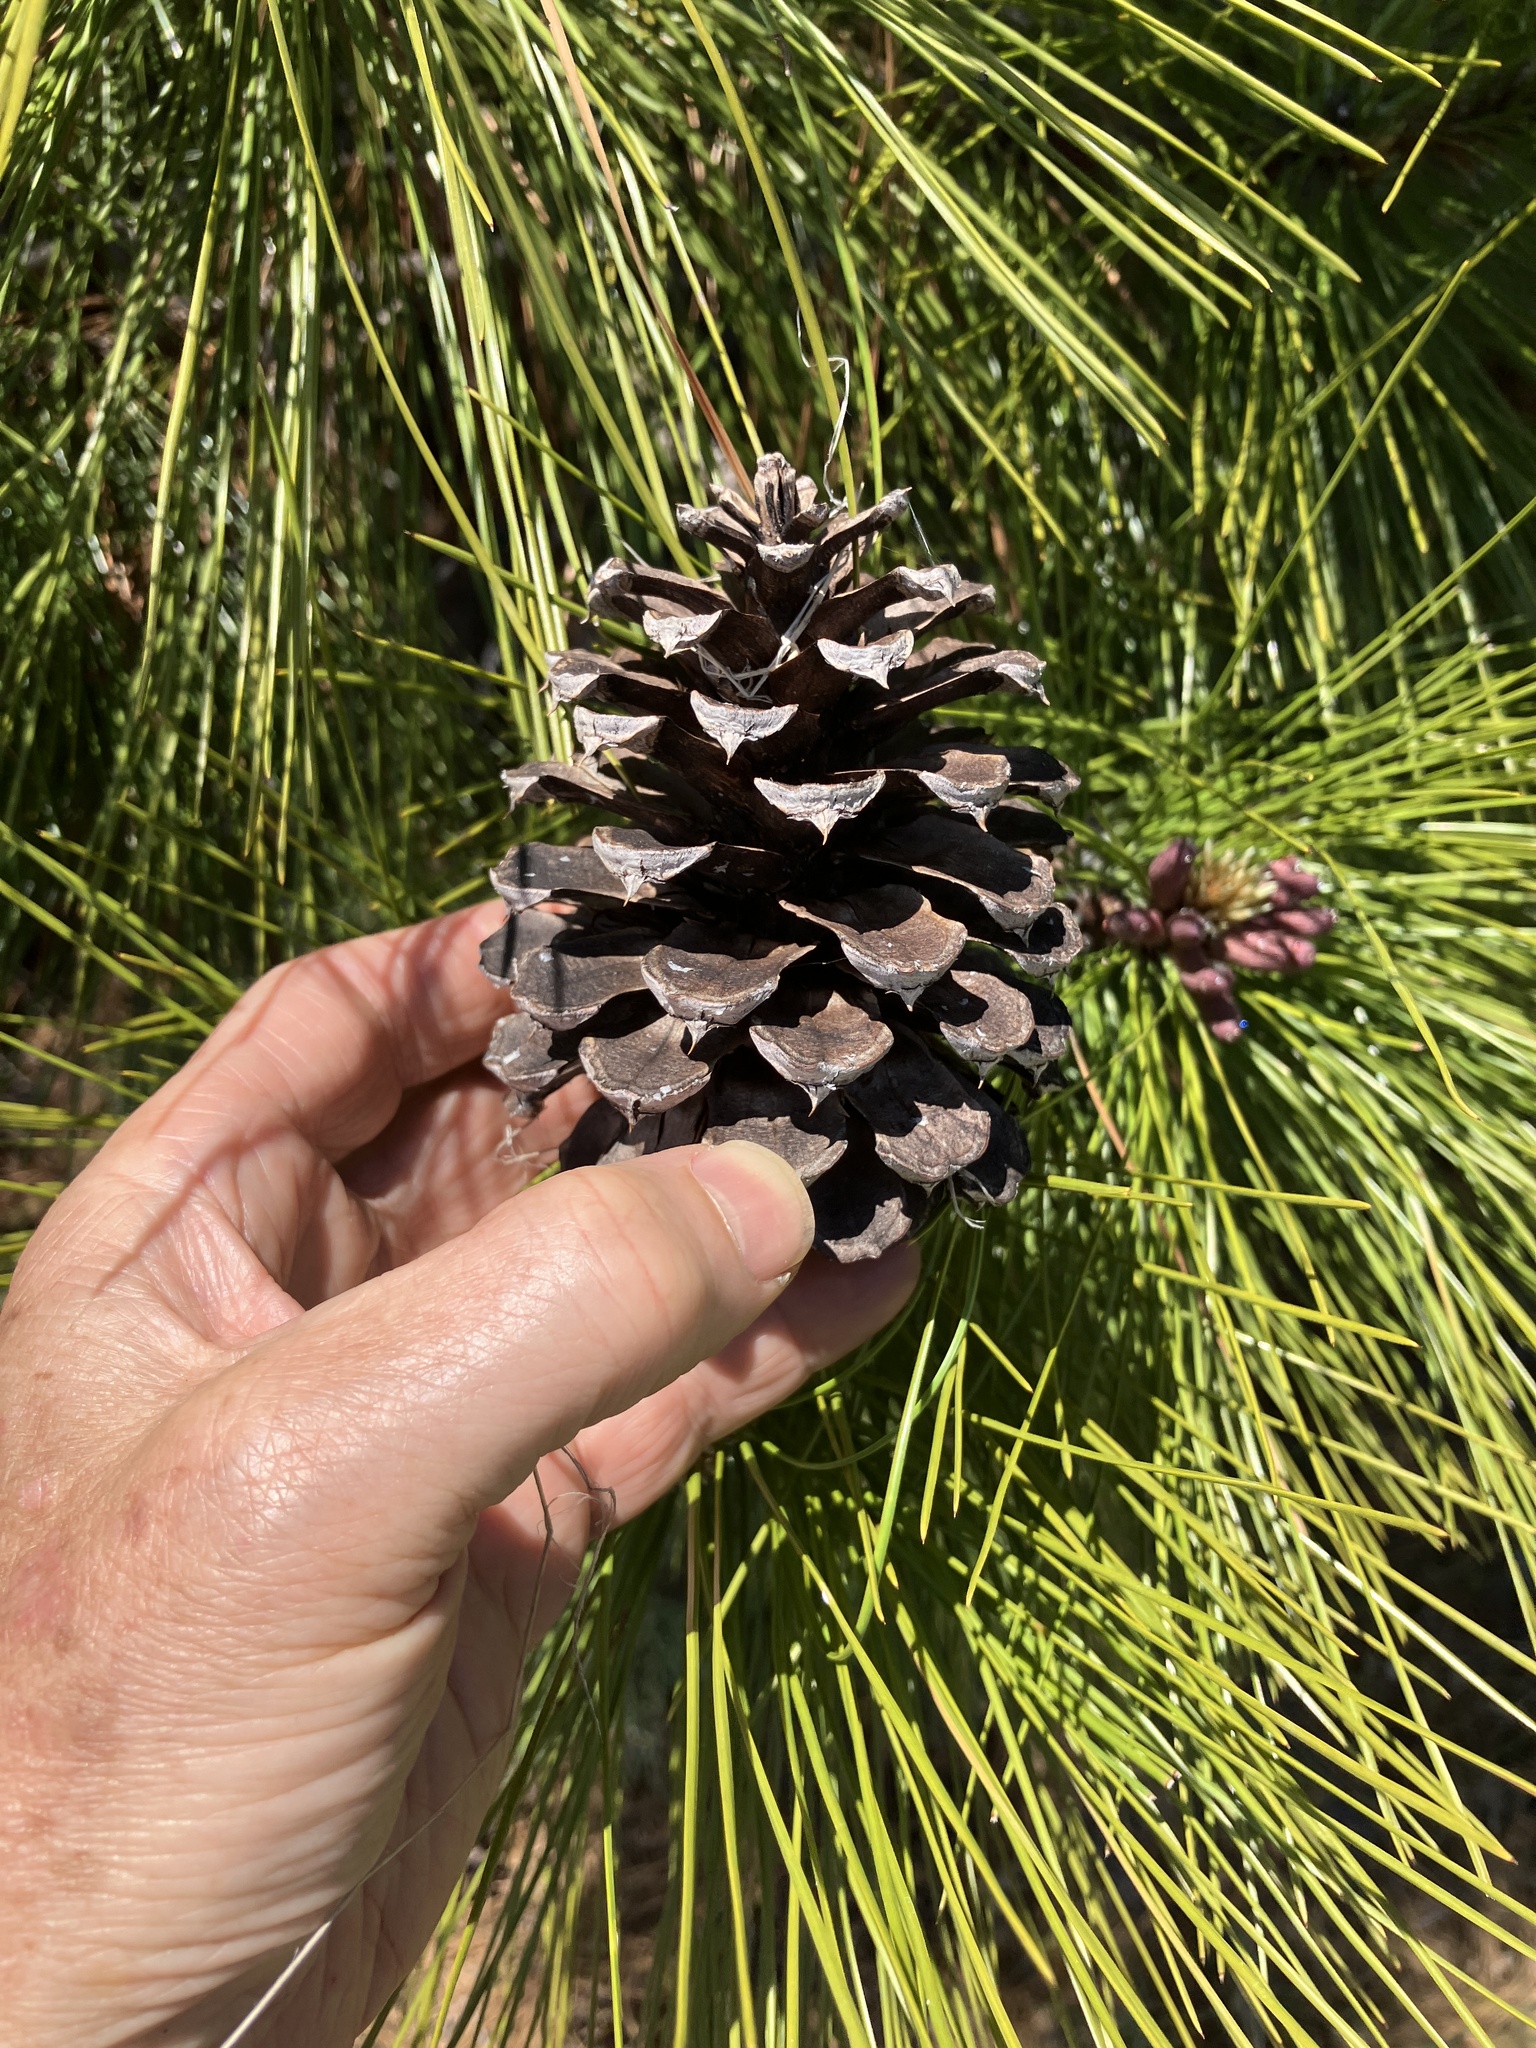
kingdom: Plantae
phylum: Tracheophyta
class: Pinopsida
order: Pinales
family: Pinaceae
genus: Pinus
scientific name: Pinus jeffreyi
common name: Jeffrey pine
